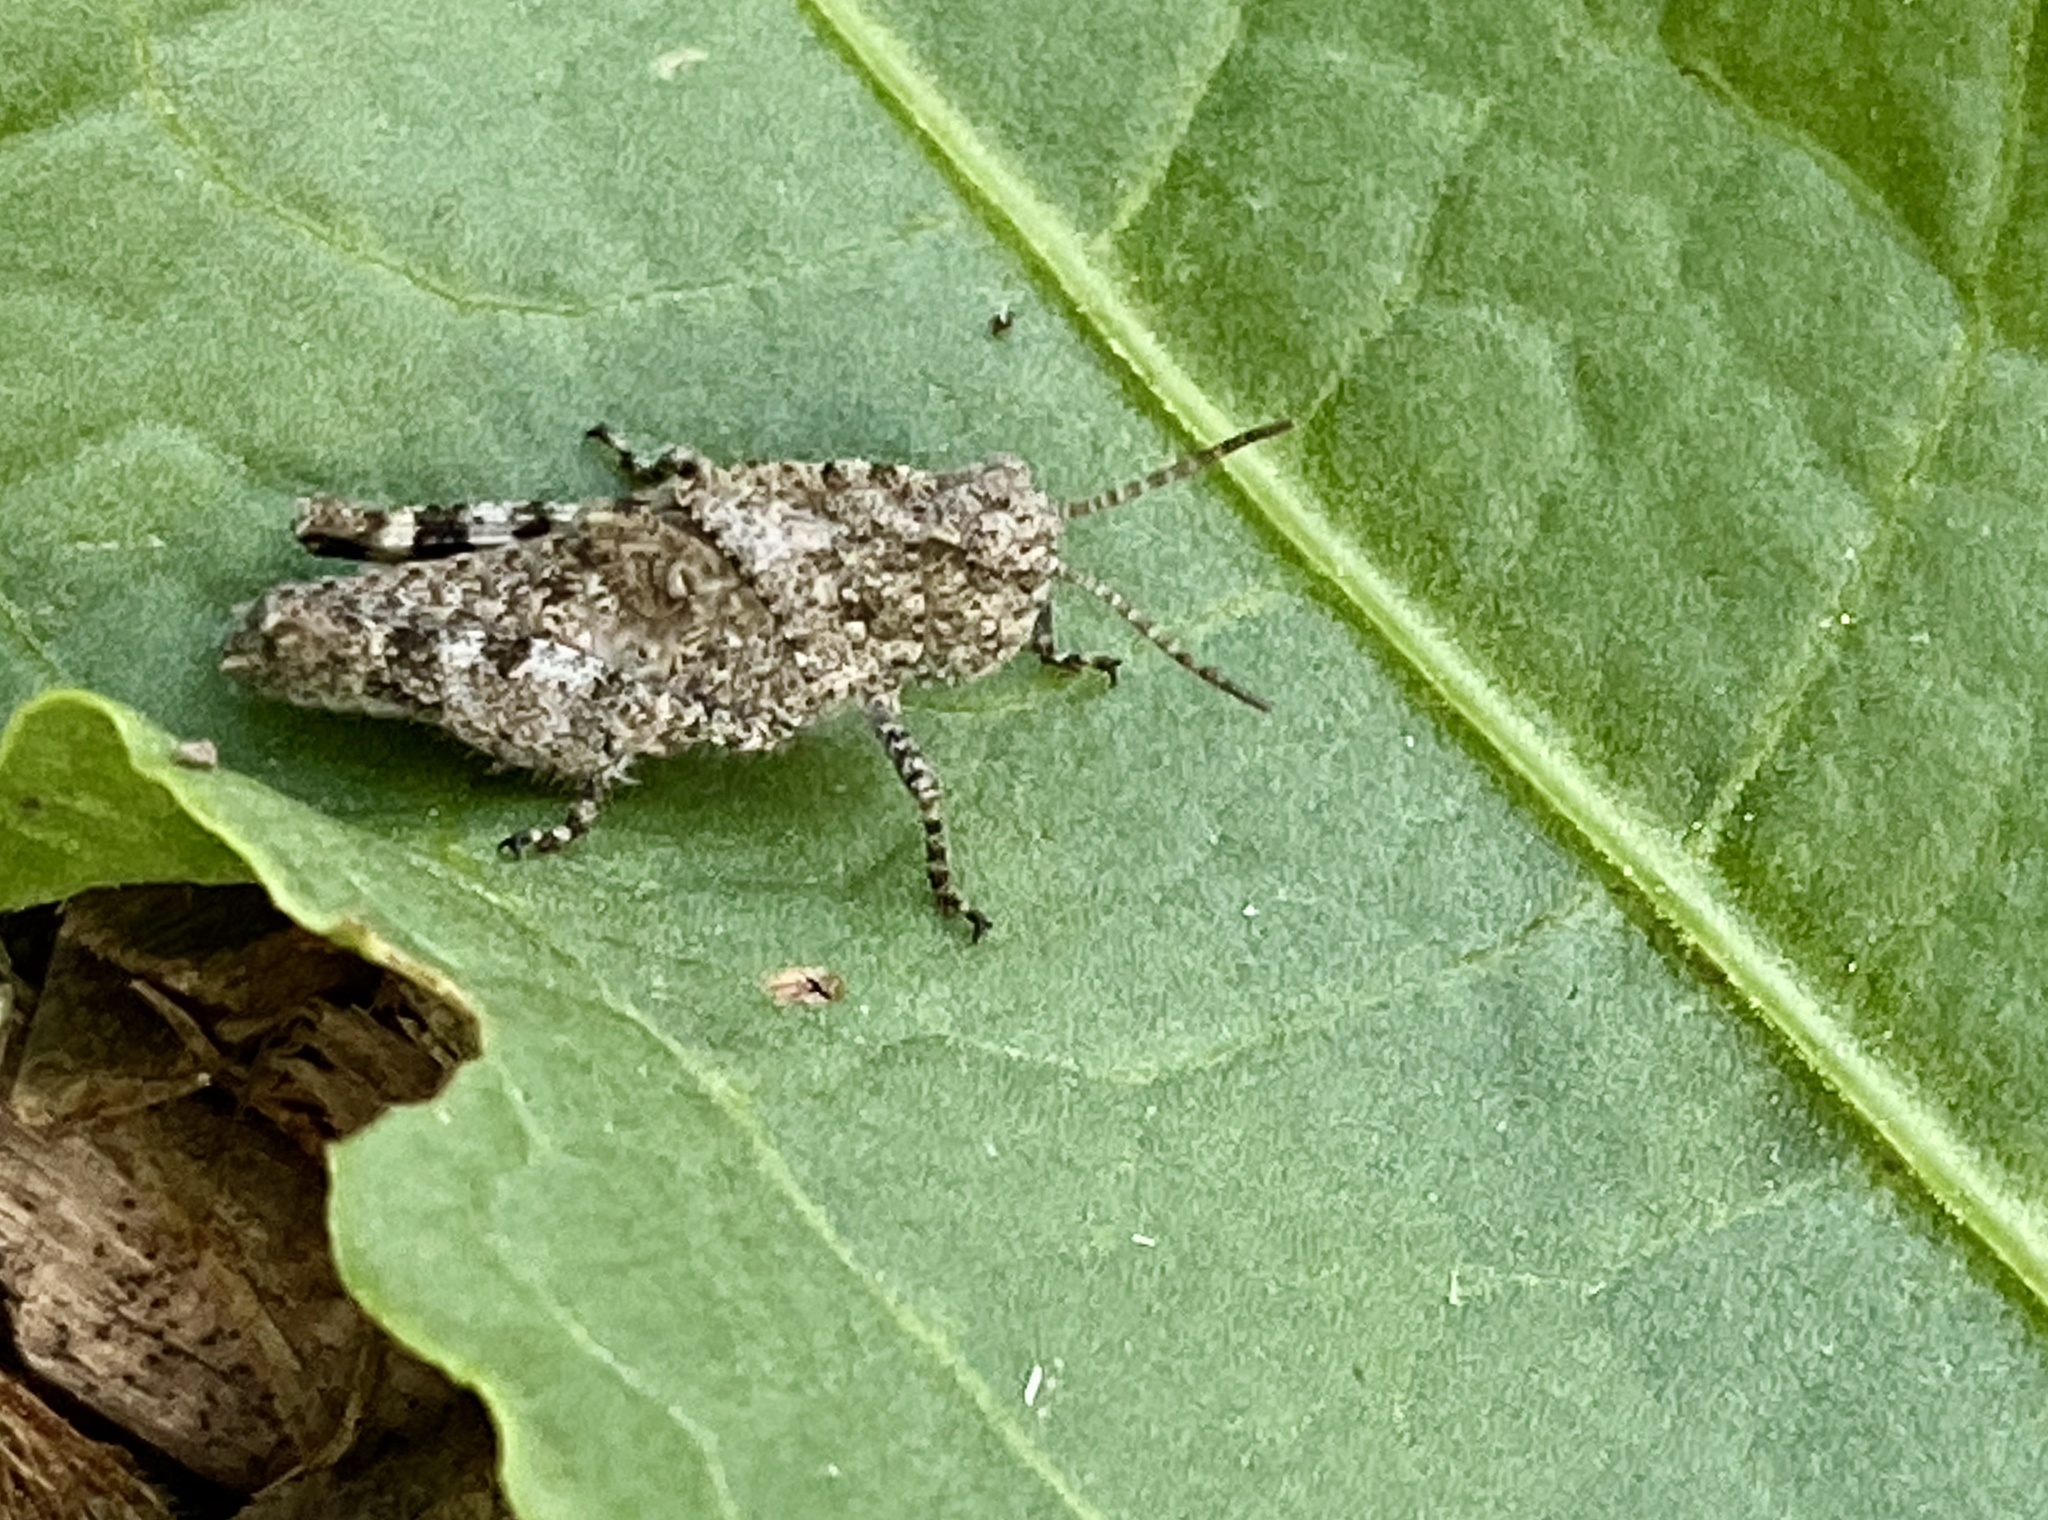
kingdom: Animalia
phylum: Arthropoda
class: Insecta
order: Orthoptera
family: Acrididae
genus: Dissosteira
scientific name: Dissosteira carolina
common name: Carolina grasshopper
